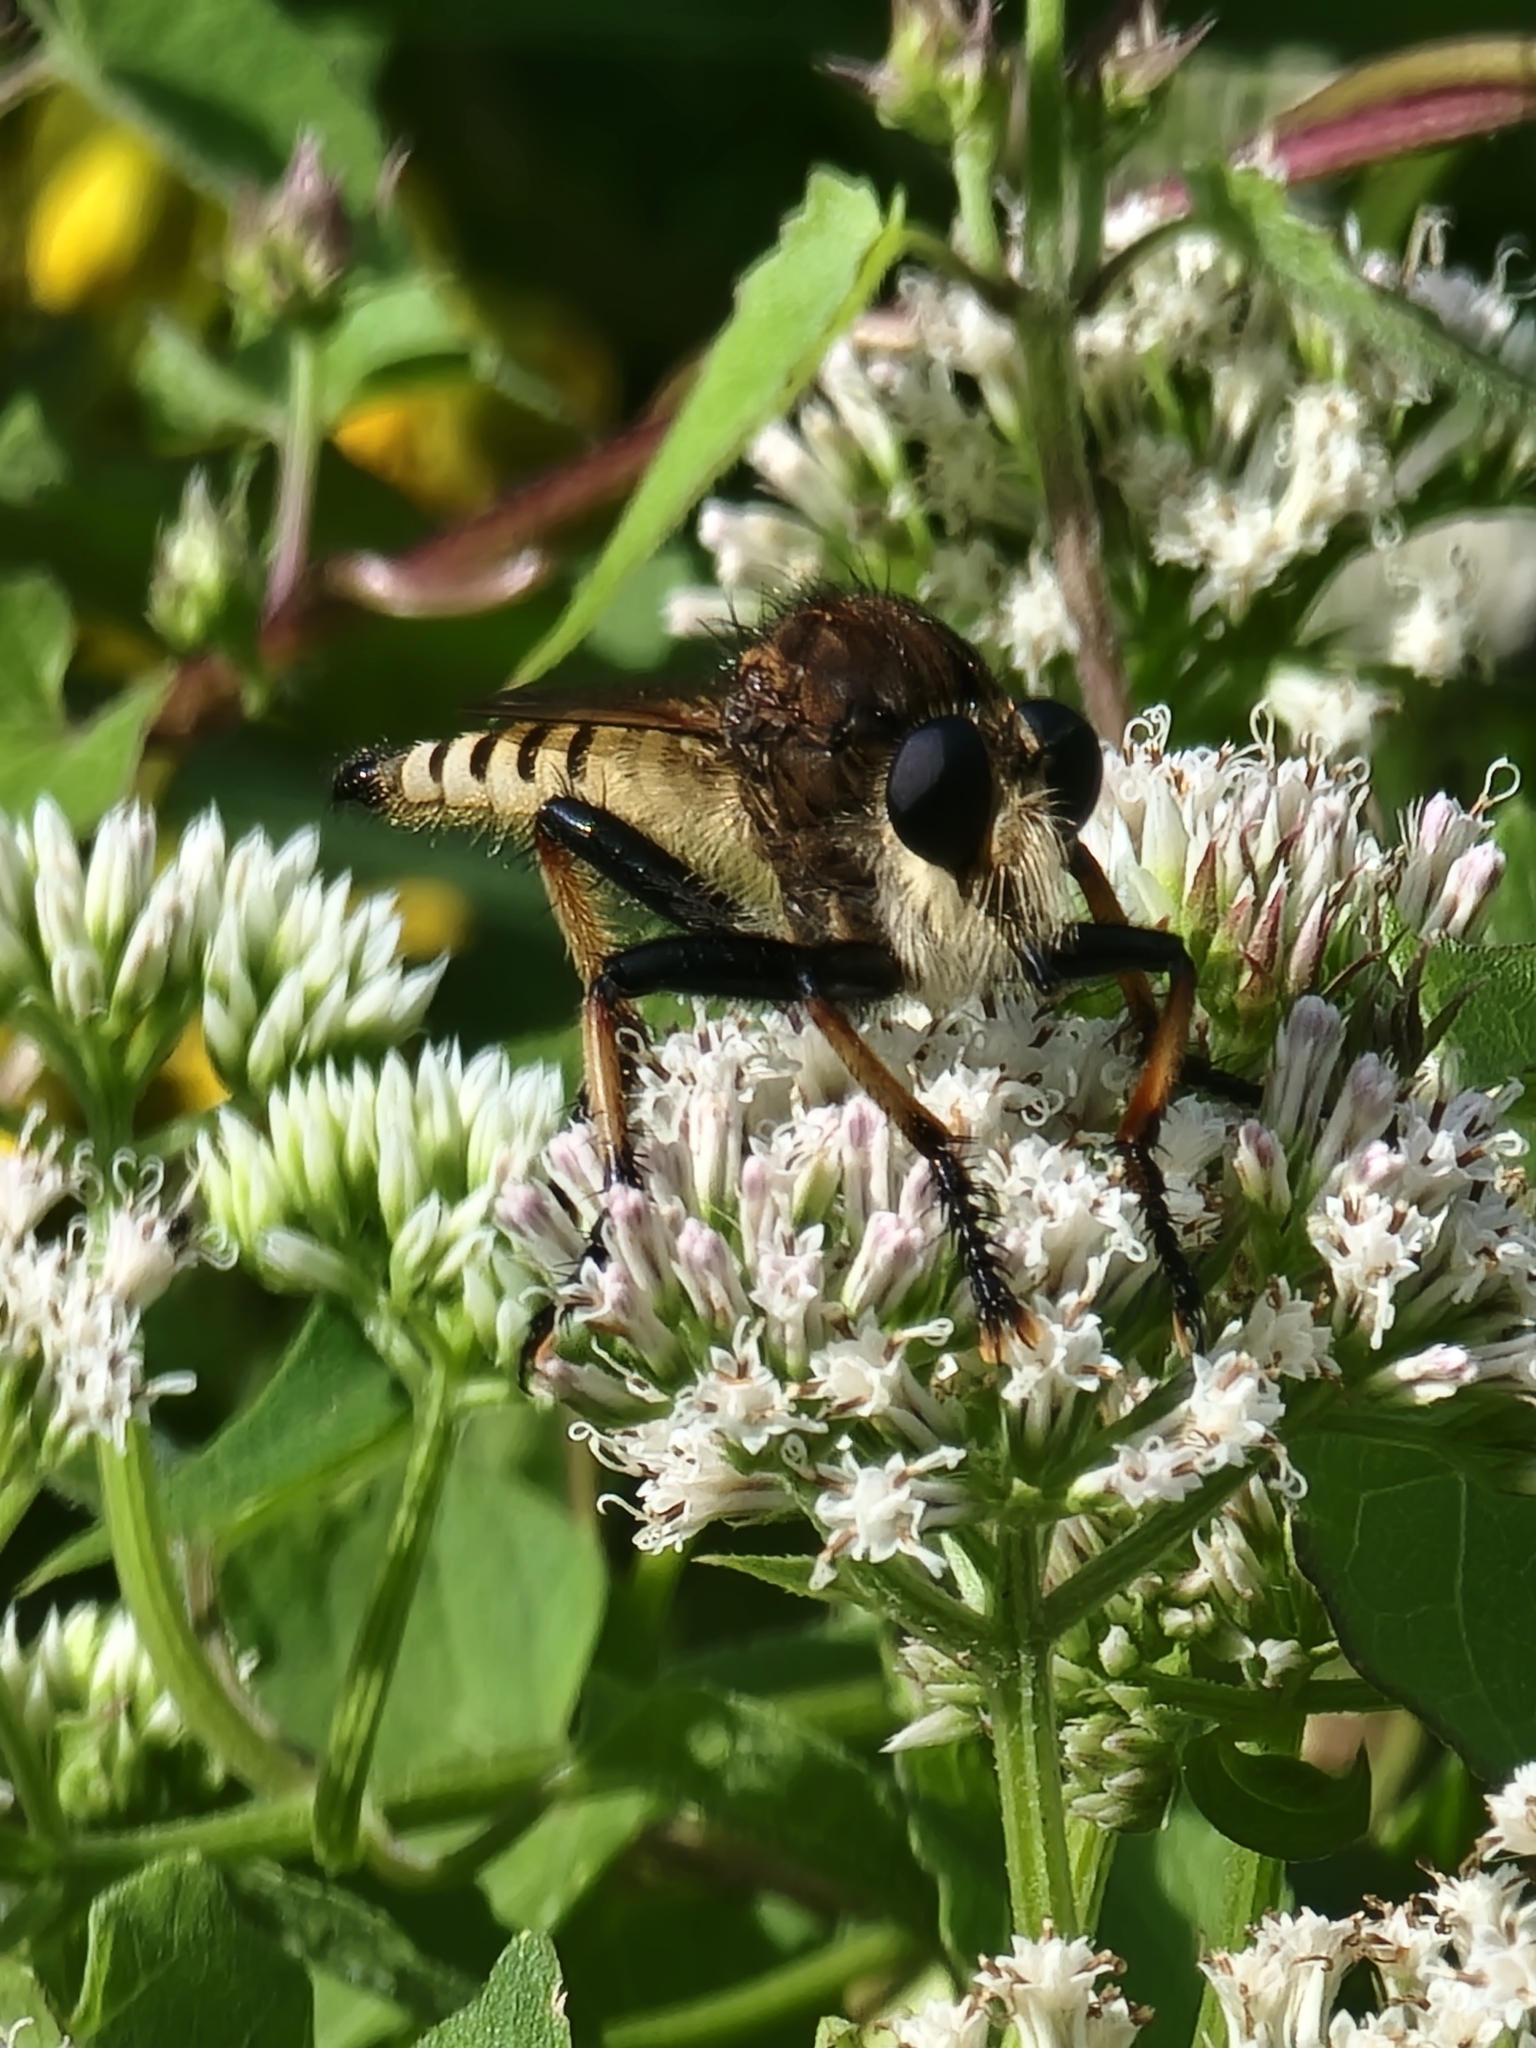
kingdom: Animalia
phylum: Arthropoda
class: Insecta
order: Diptera
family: Asilidae
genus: Promachus
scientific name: Promachus rufipes
